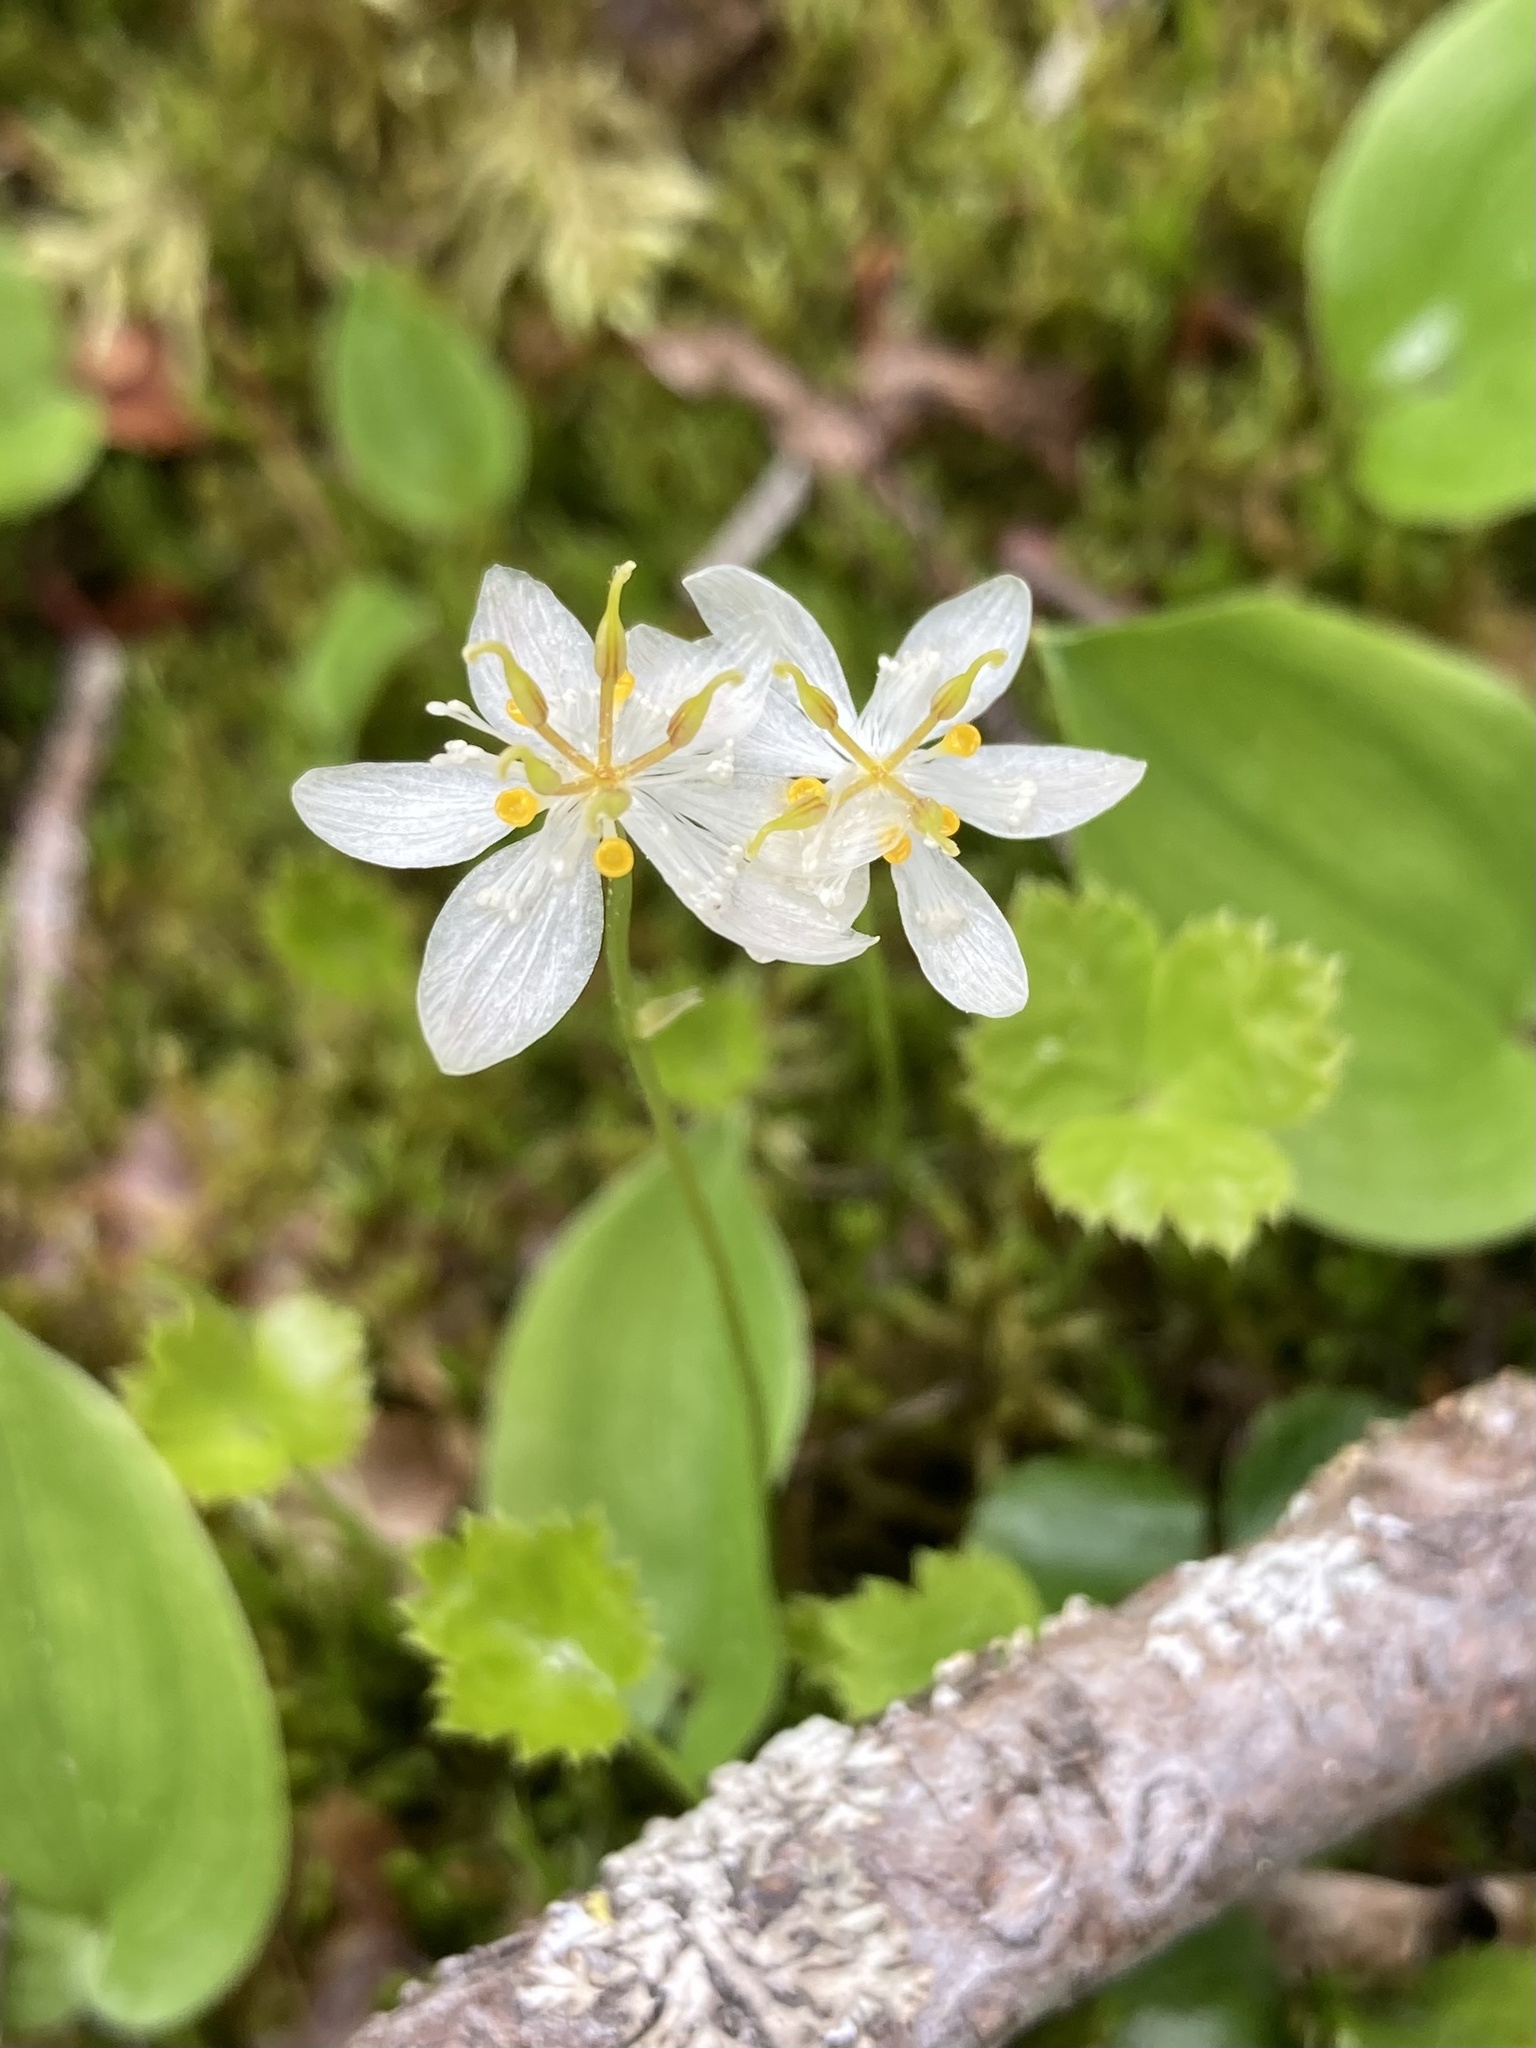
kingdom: Plantae
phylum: Tracheophyta
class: Magnoliopsida
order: Ranunculales
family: Ranunculaceae
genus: Coptis
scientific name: Coptis trifolia
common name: Canker-root
